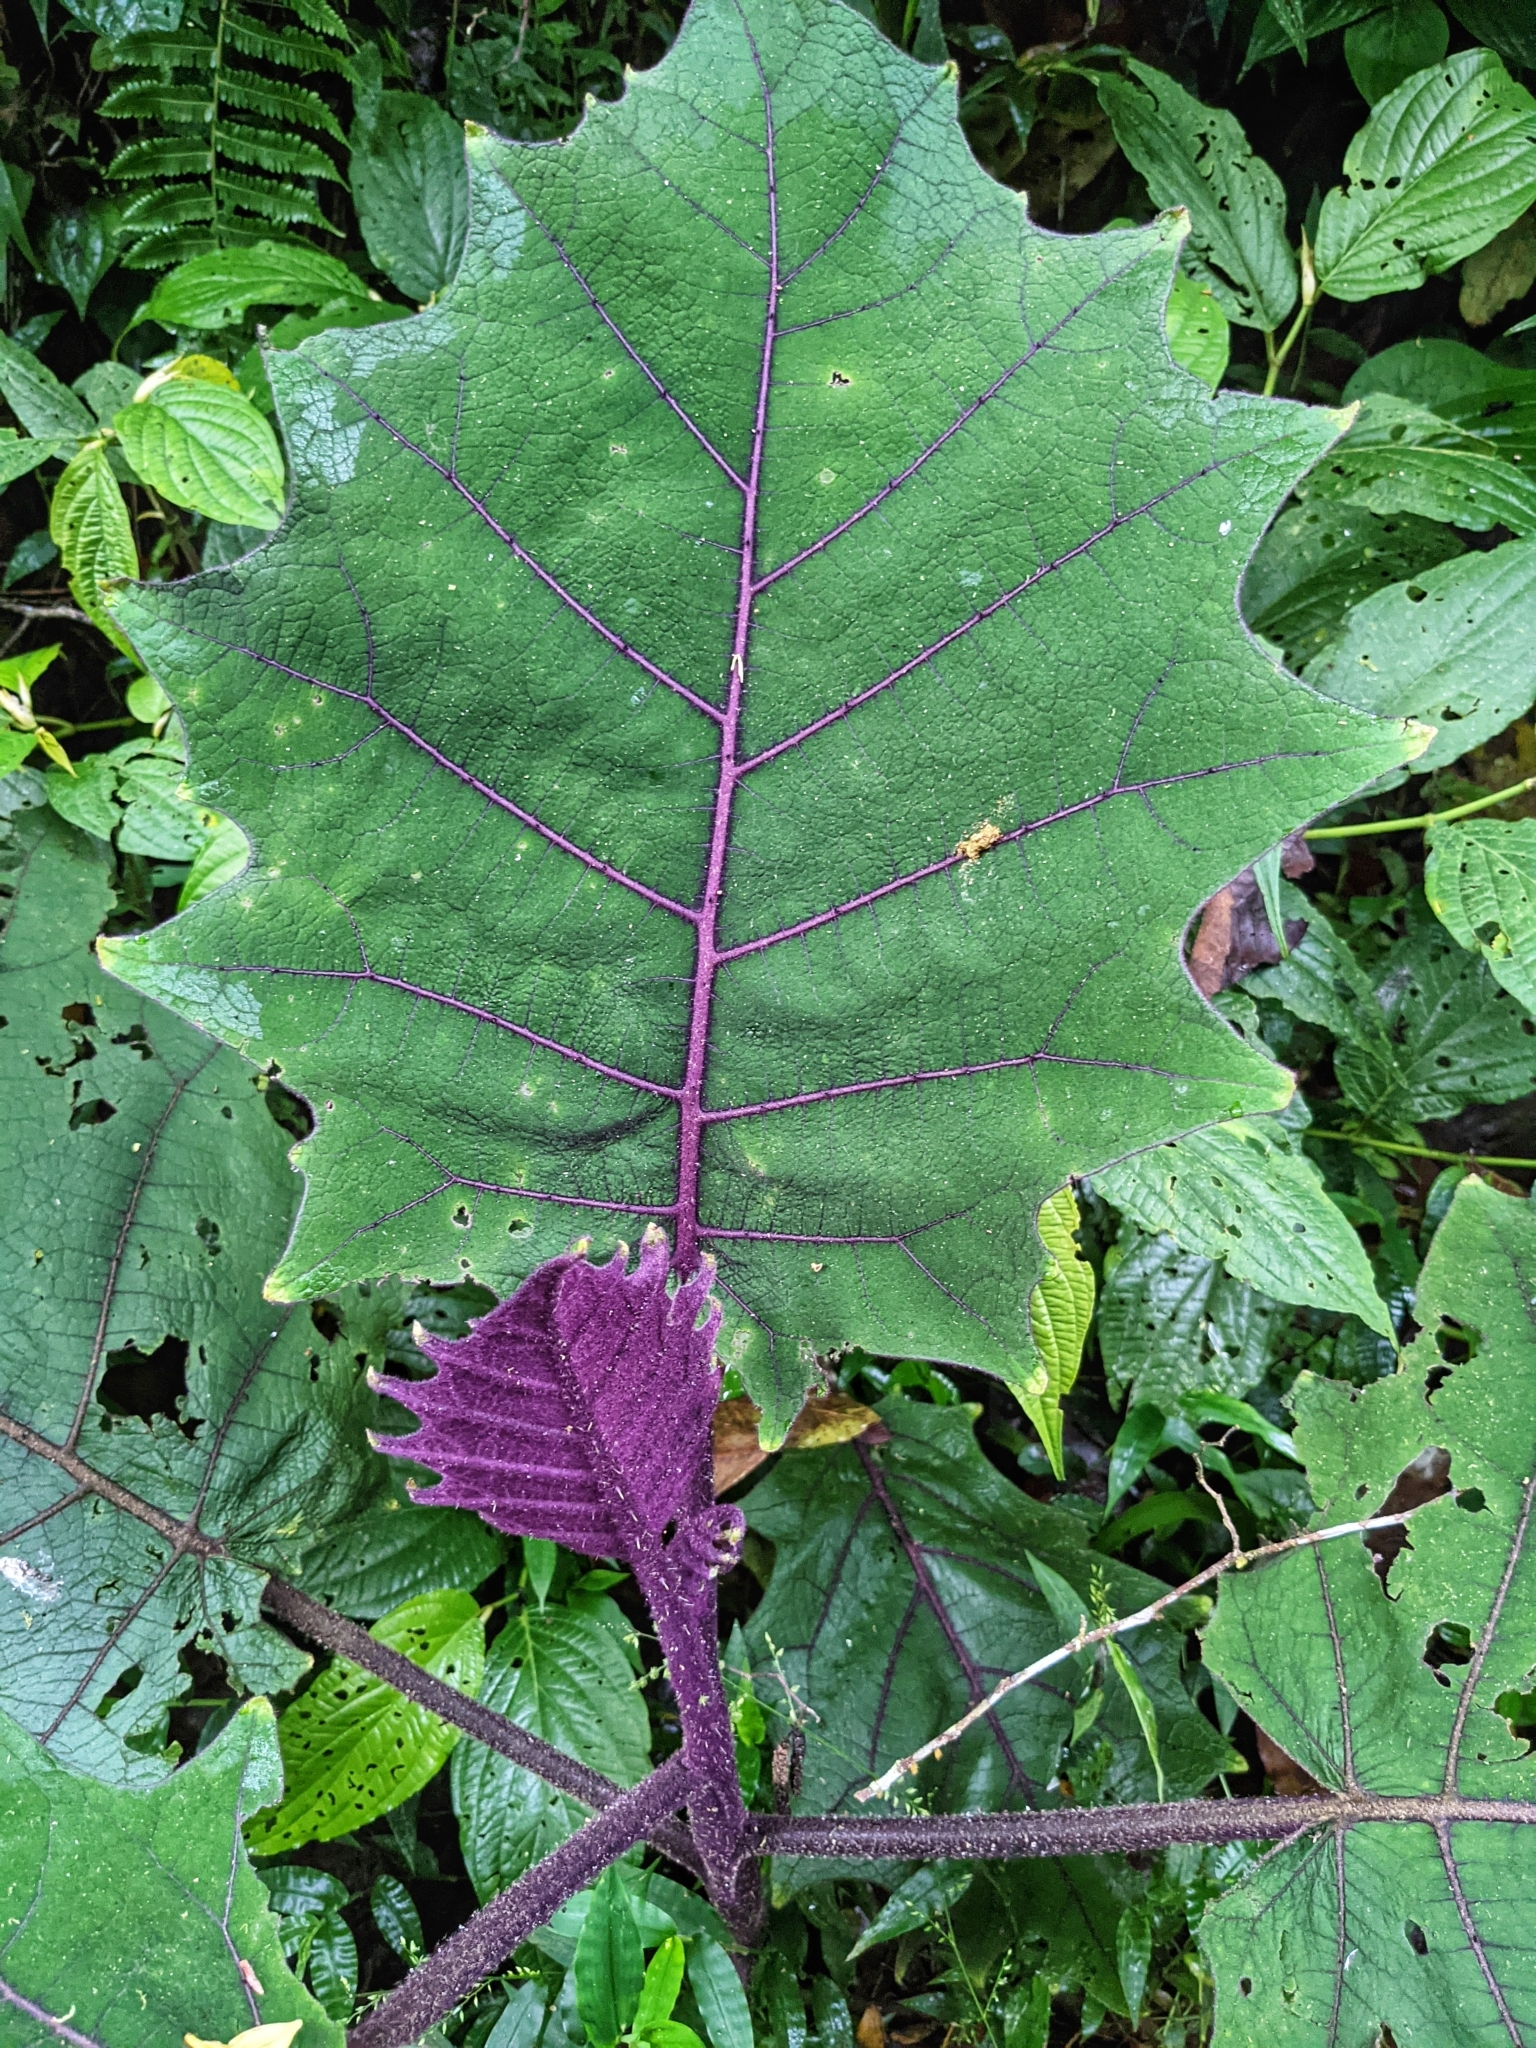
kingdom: Plantae
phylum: Tracheophyta
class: Magnoliopsida
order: Solanales
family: Solanaceae
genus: Solanum
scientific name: Solanum quitoense
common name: Quito-orange
